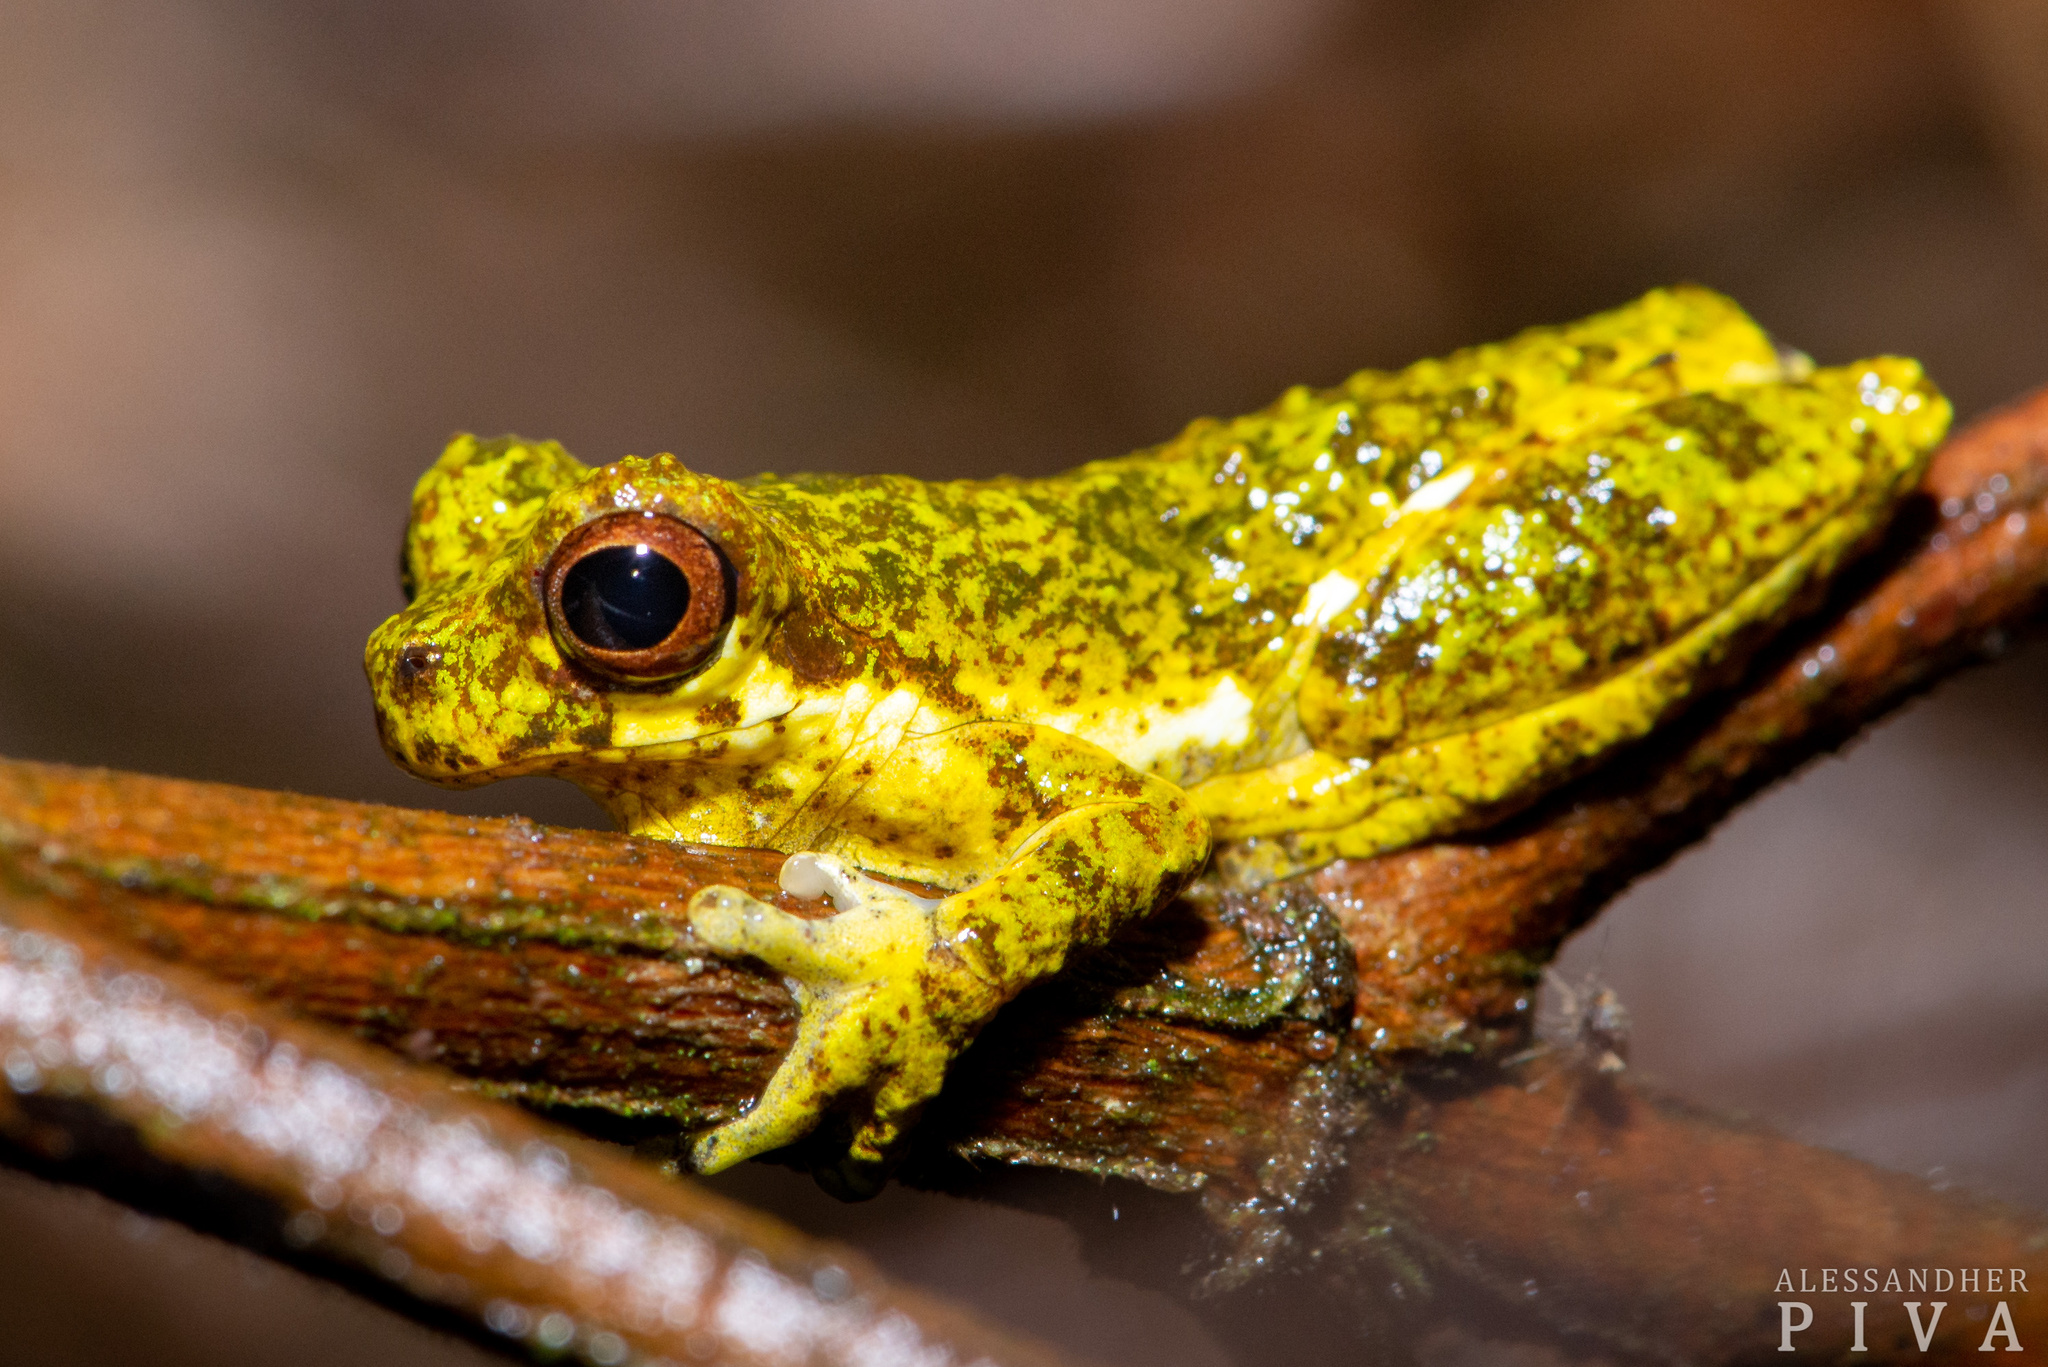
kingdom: Animalia
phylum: Chordata
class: Amphibia
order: Anura
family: Hylidae
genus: Dendropsophus
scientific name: Dendropsophus microps
